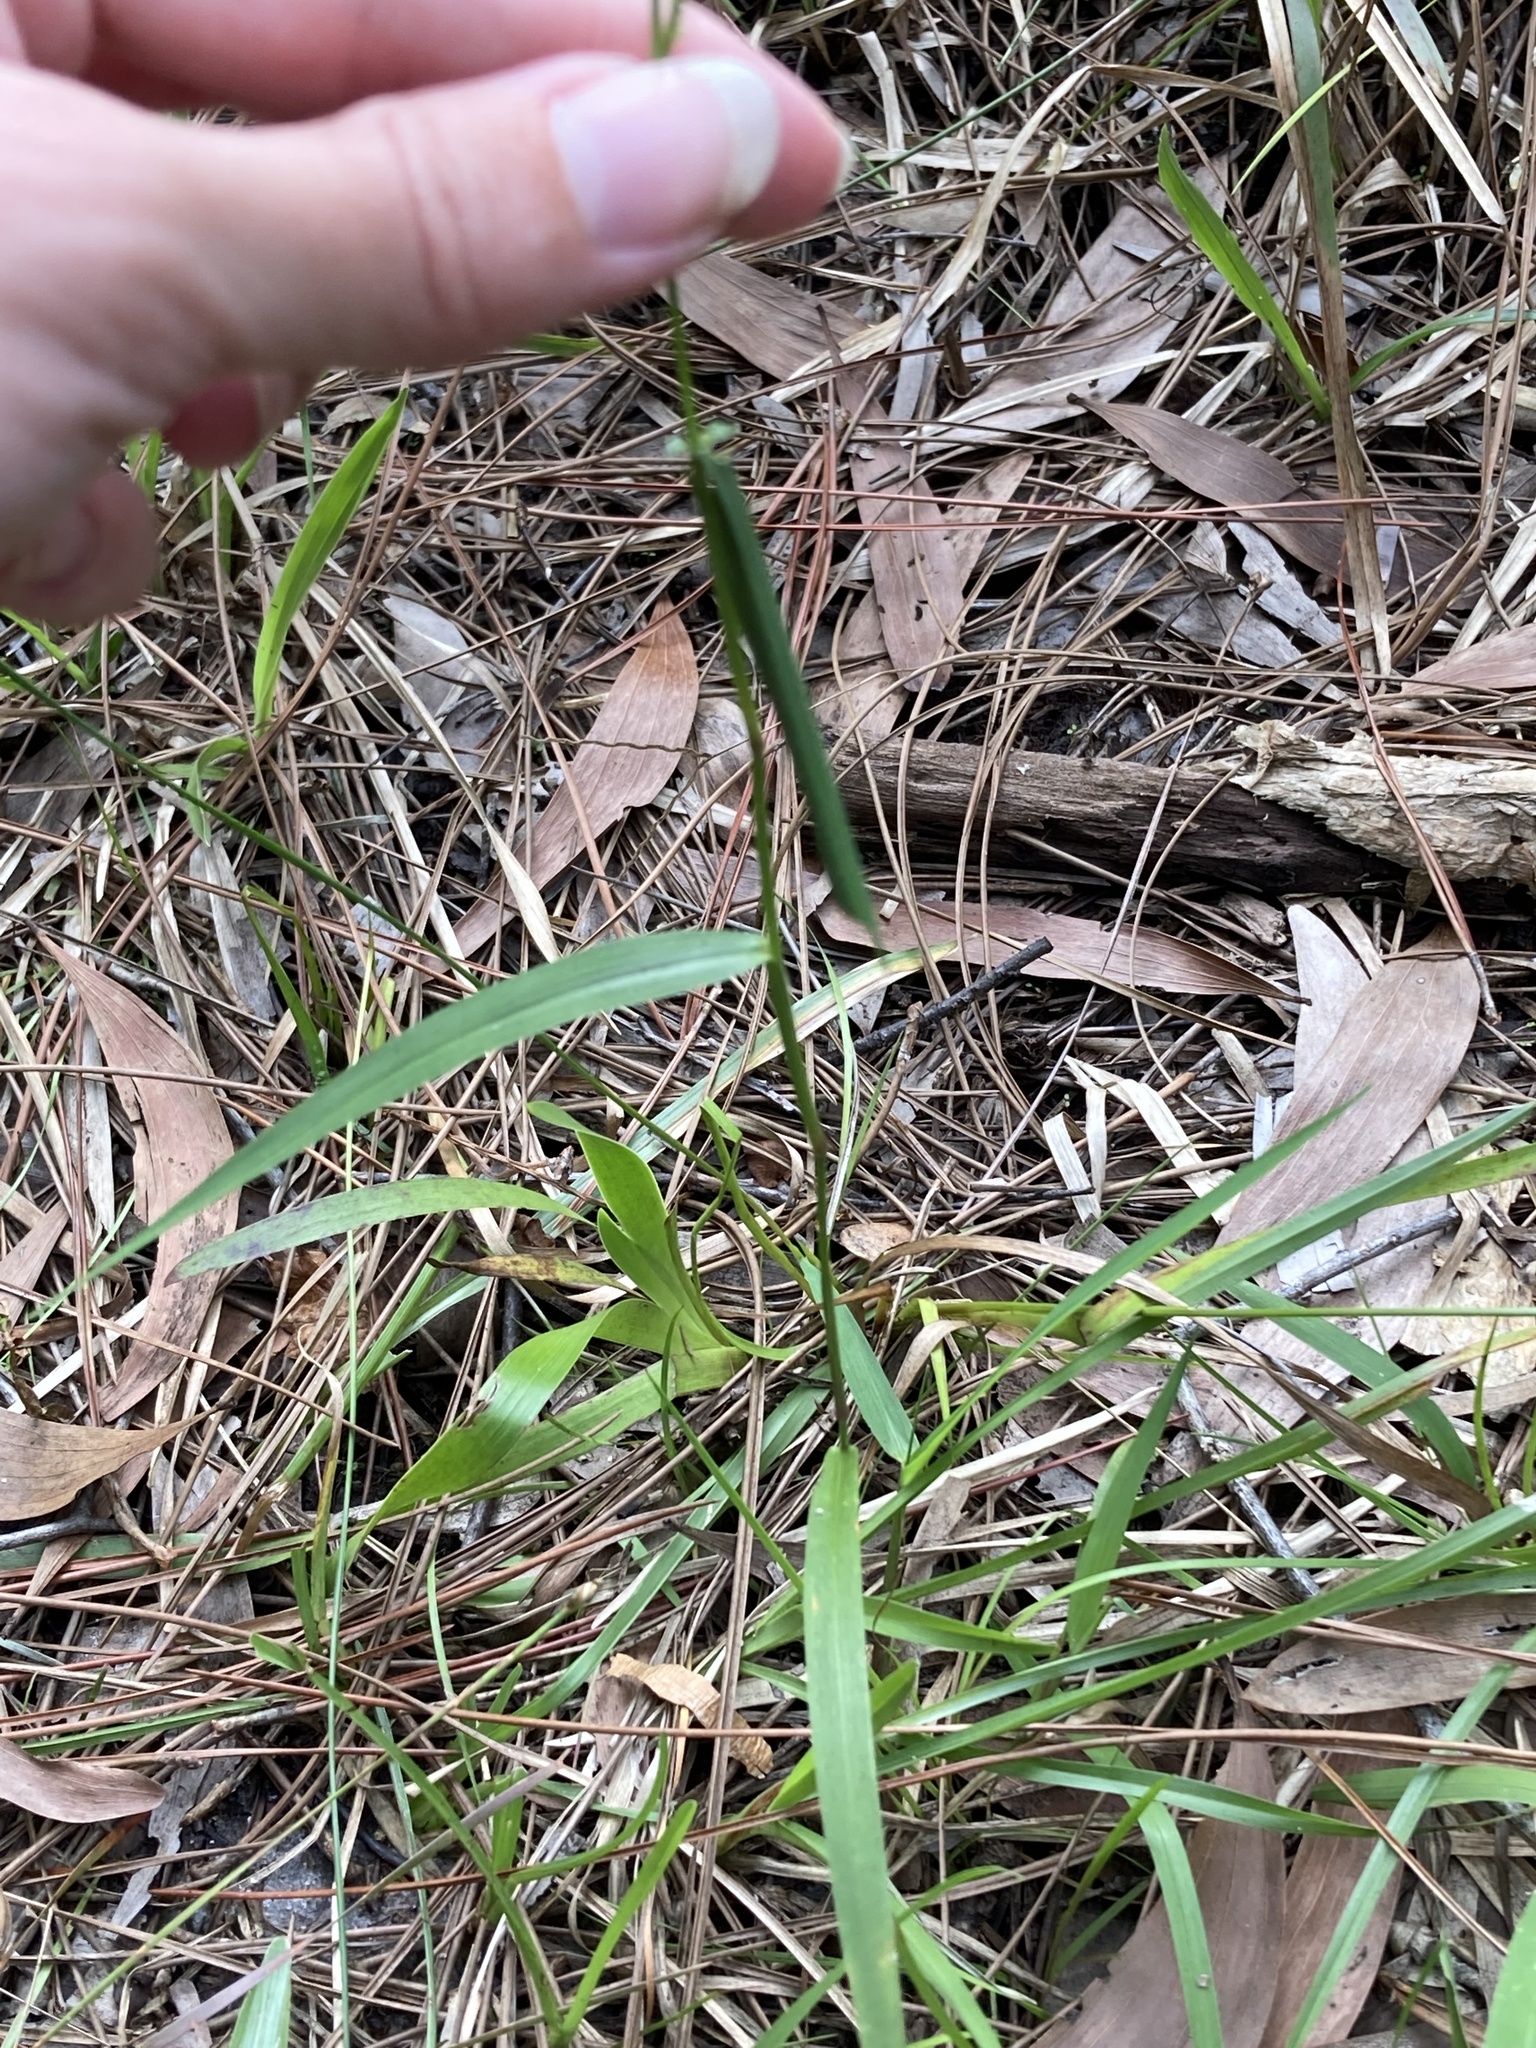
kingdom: Plantae
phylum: Tracheophyta
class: Liliopsida
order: Poales
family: Poaceae
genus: Steinchisma
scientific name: Steinchisma laxum
